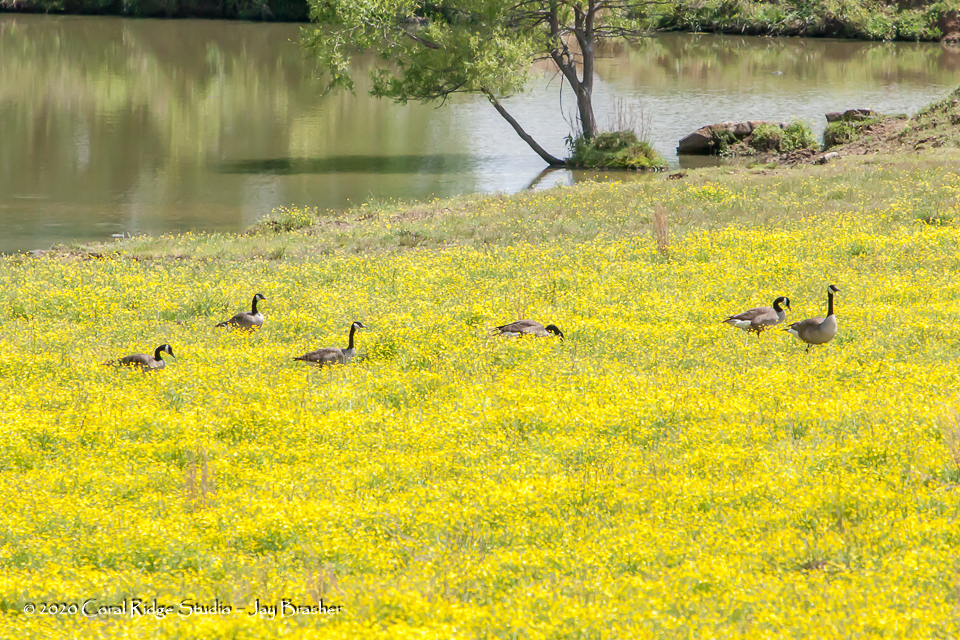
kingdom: Animalia
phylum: Chordata
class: Aves
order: Anseriformes
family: Anatidae
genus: Branta
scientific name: Branta canadensis
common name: Canada goose
